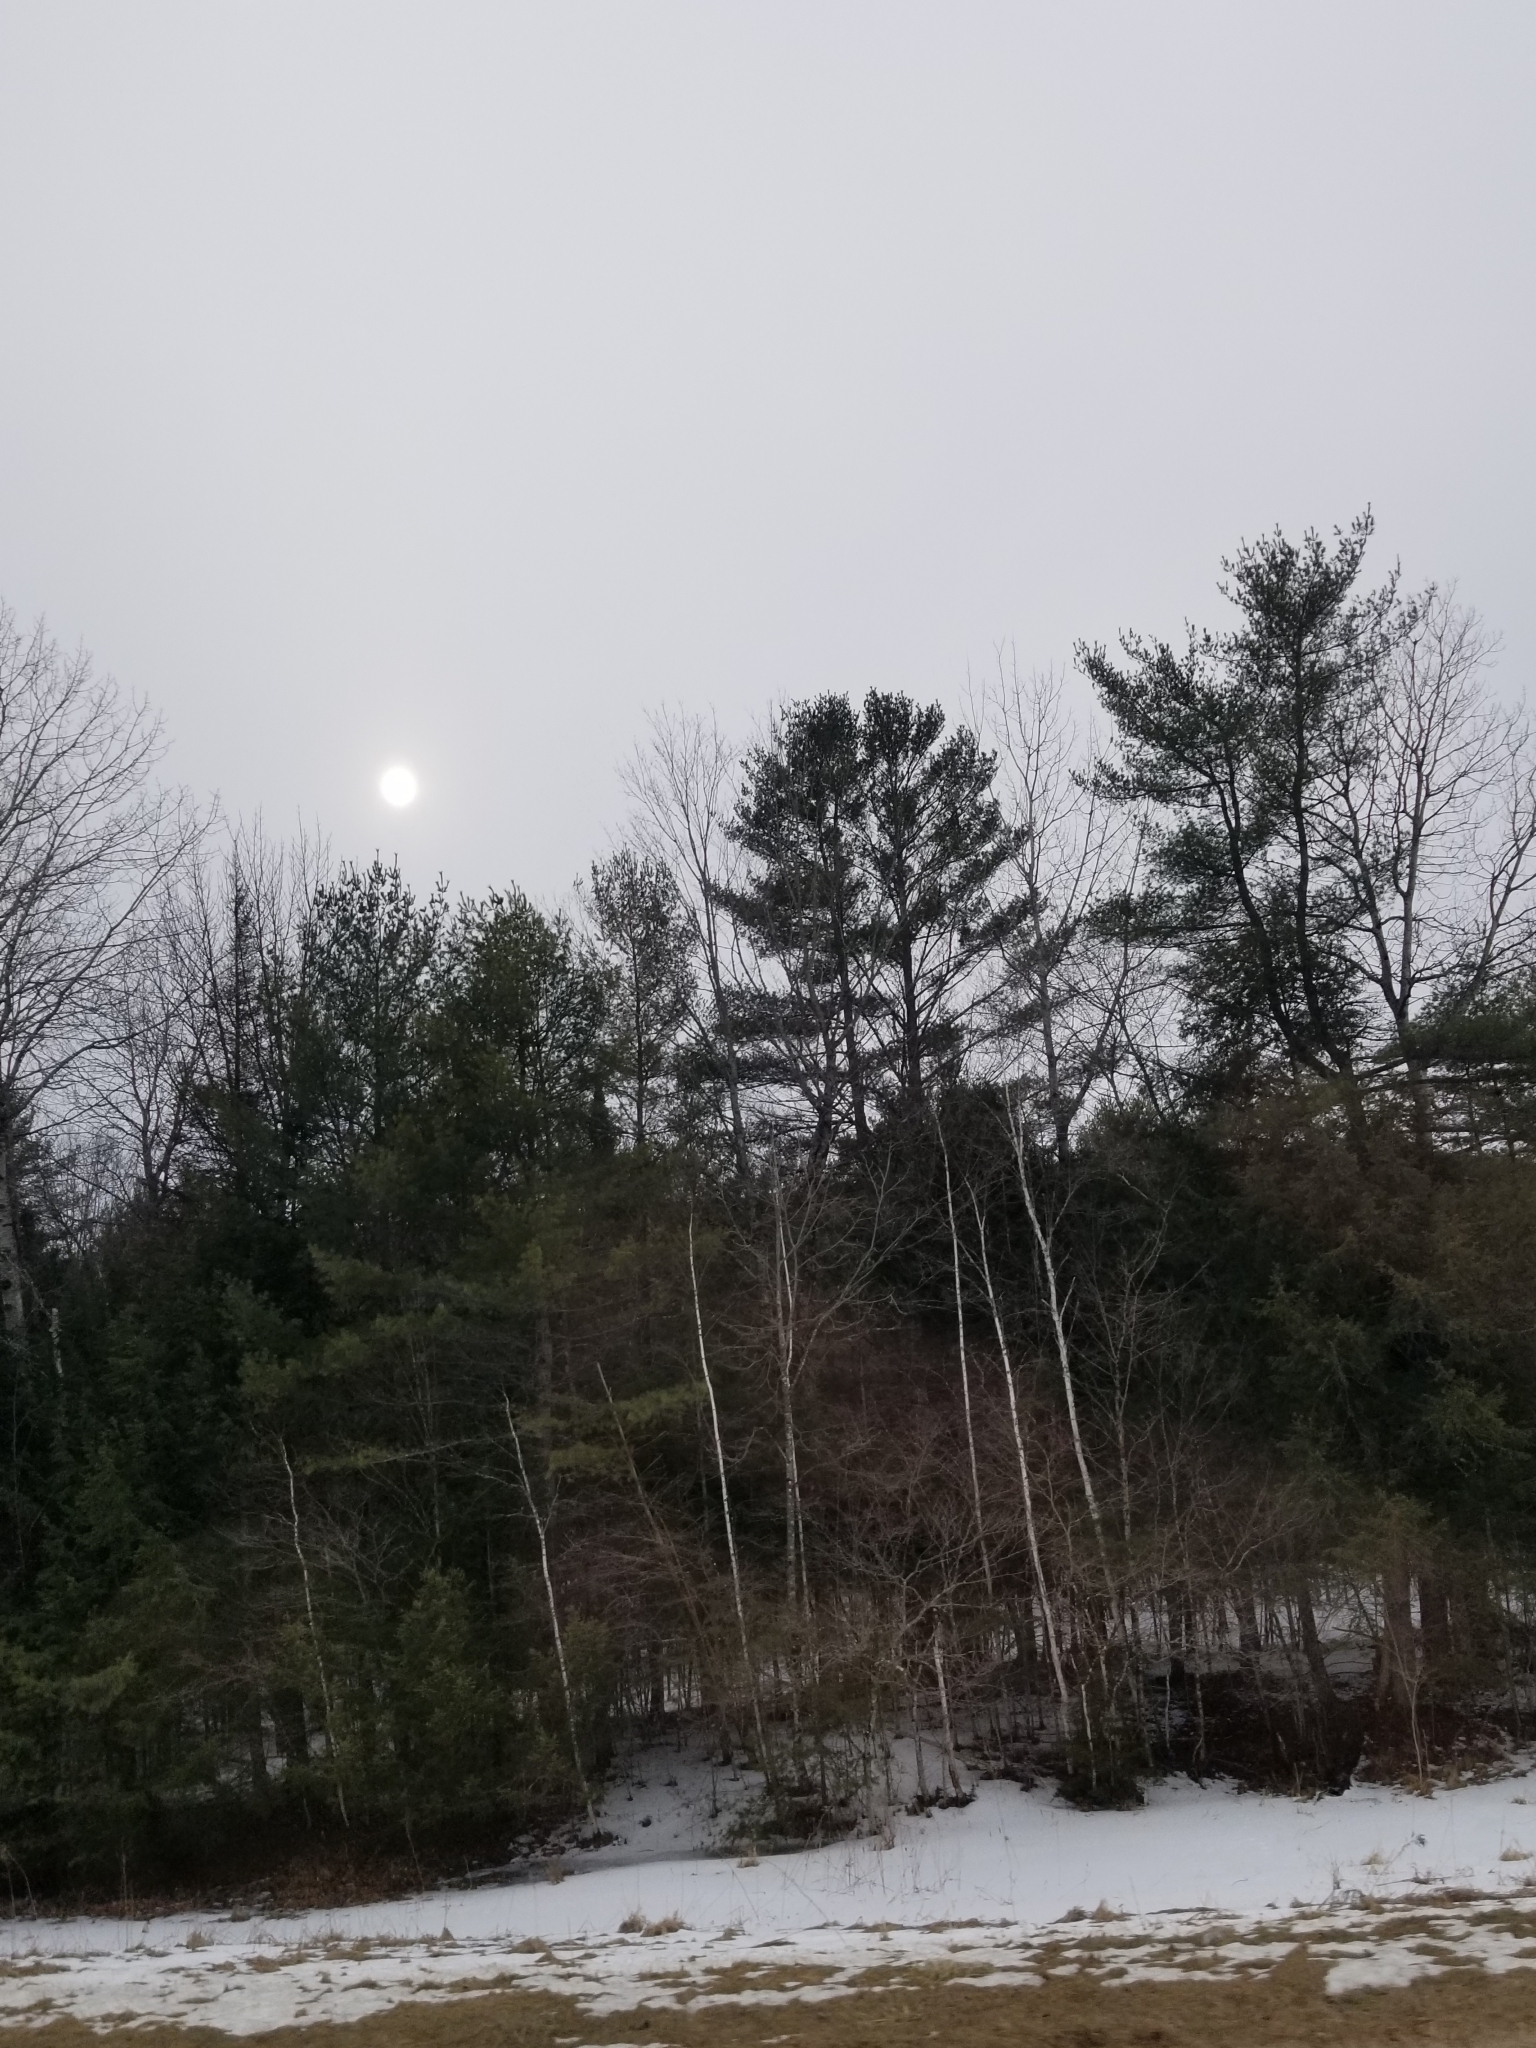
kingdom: Plantae
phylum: Tracheophyta
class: Pinopsida
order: Pinales
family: Pinaceae
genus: Pinus
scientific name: Pinus strobus
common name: Weymouth pine
